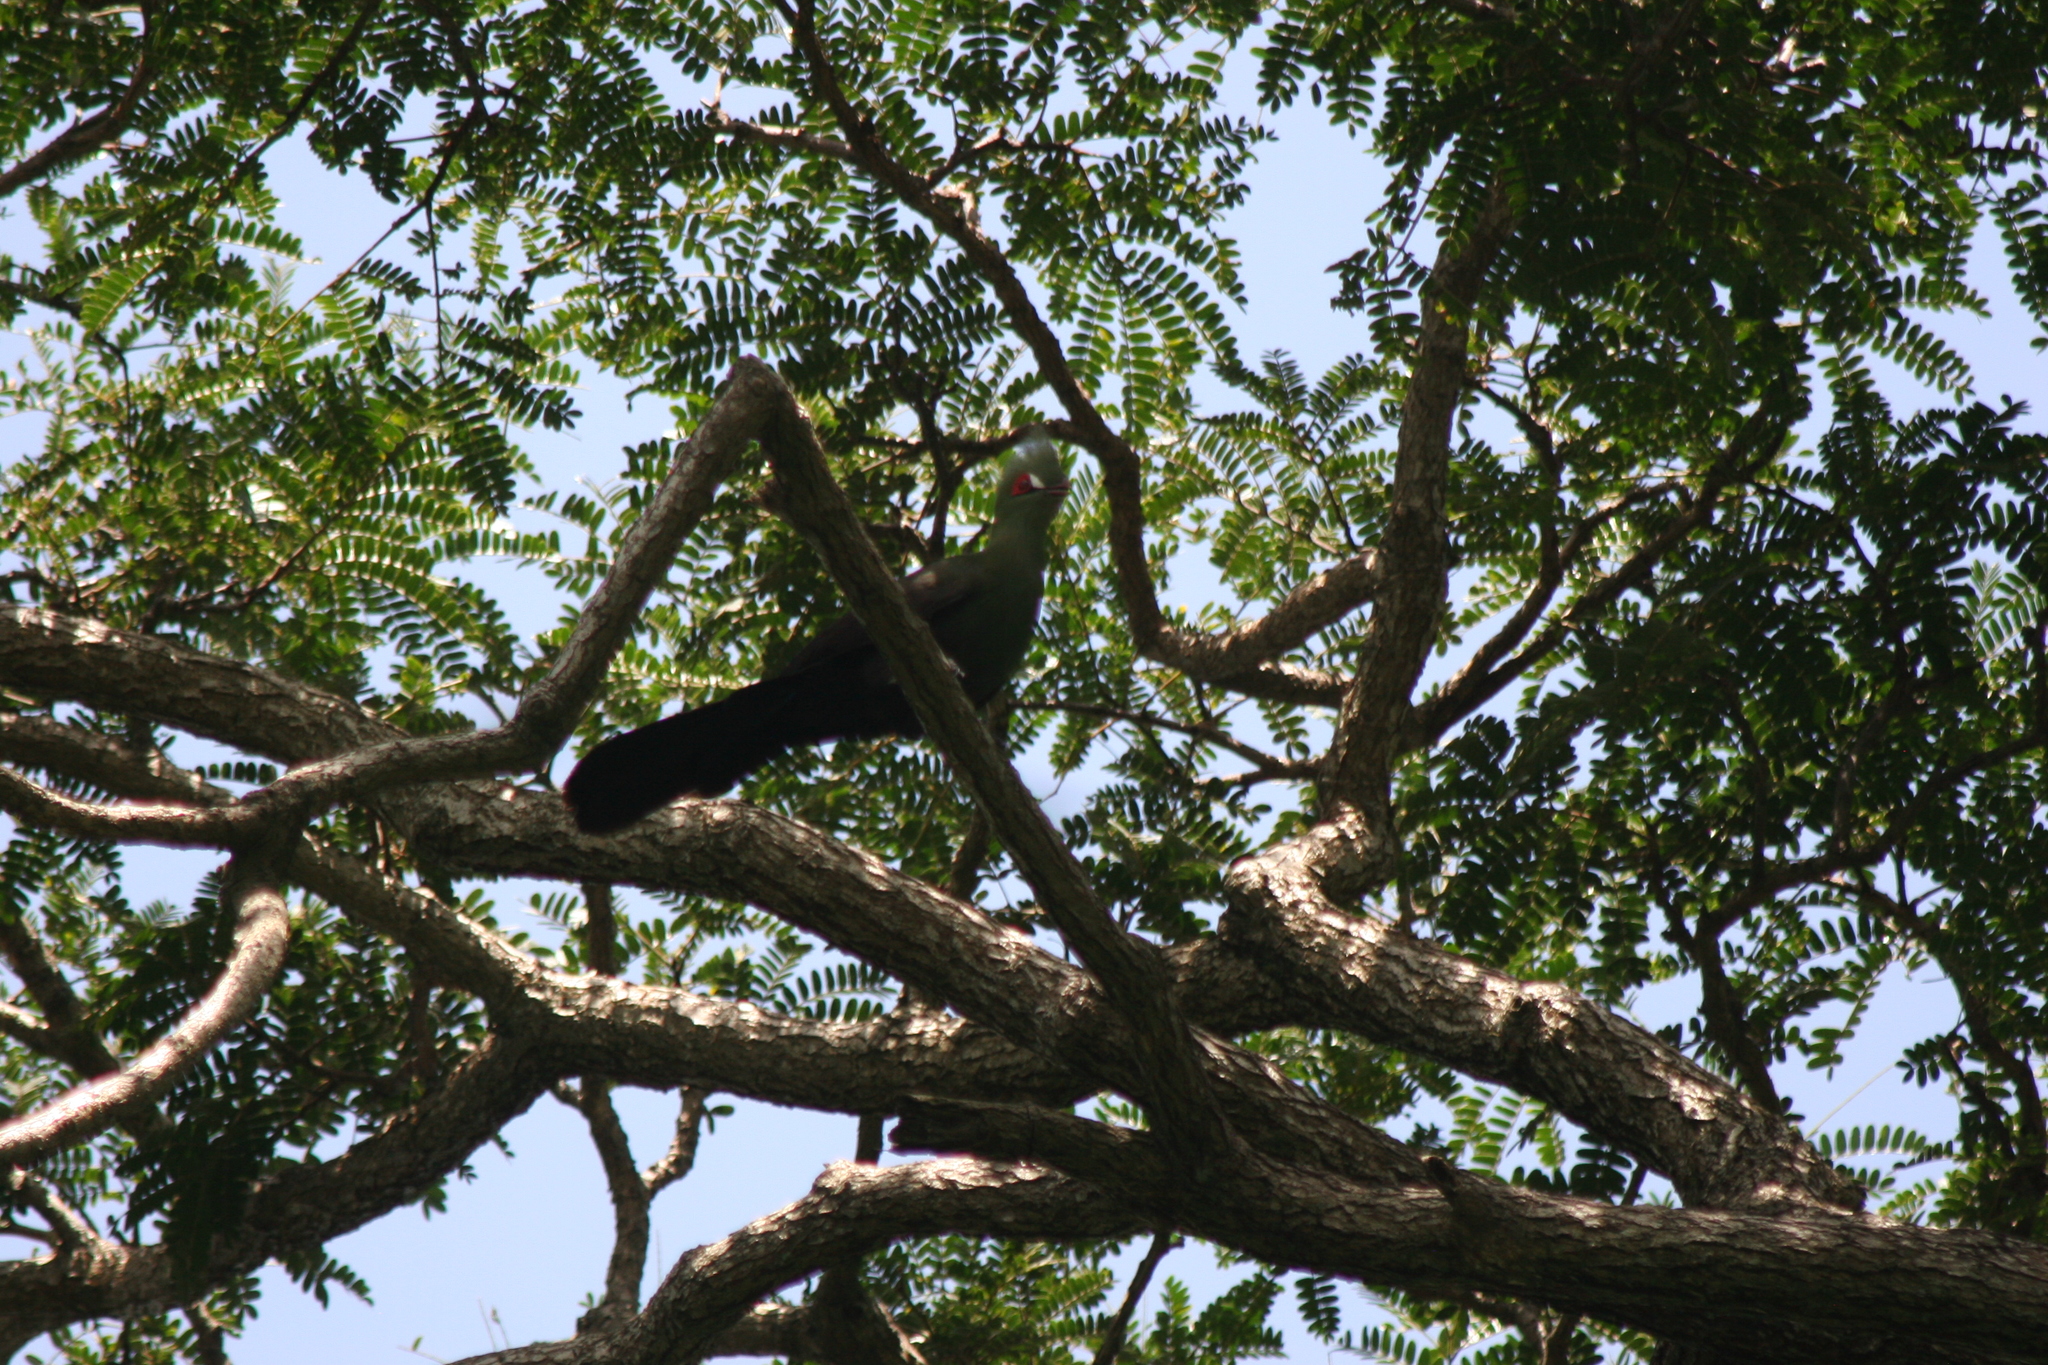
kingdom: Animalia
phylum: Chordata
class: Aves
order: Musophagiformes
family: Musophagidae
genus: Tauraco
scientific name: Tauraco persa
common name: Guinea turaco
